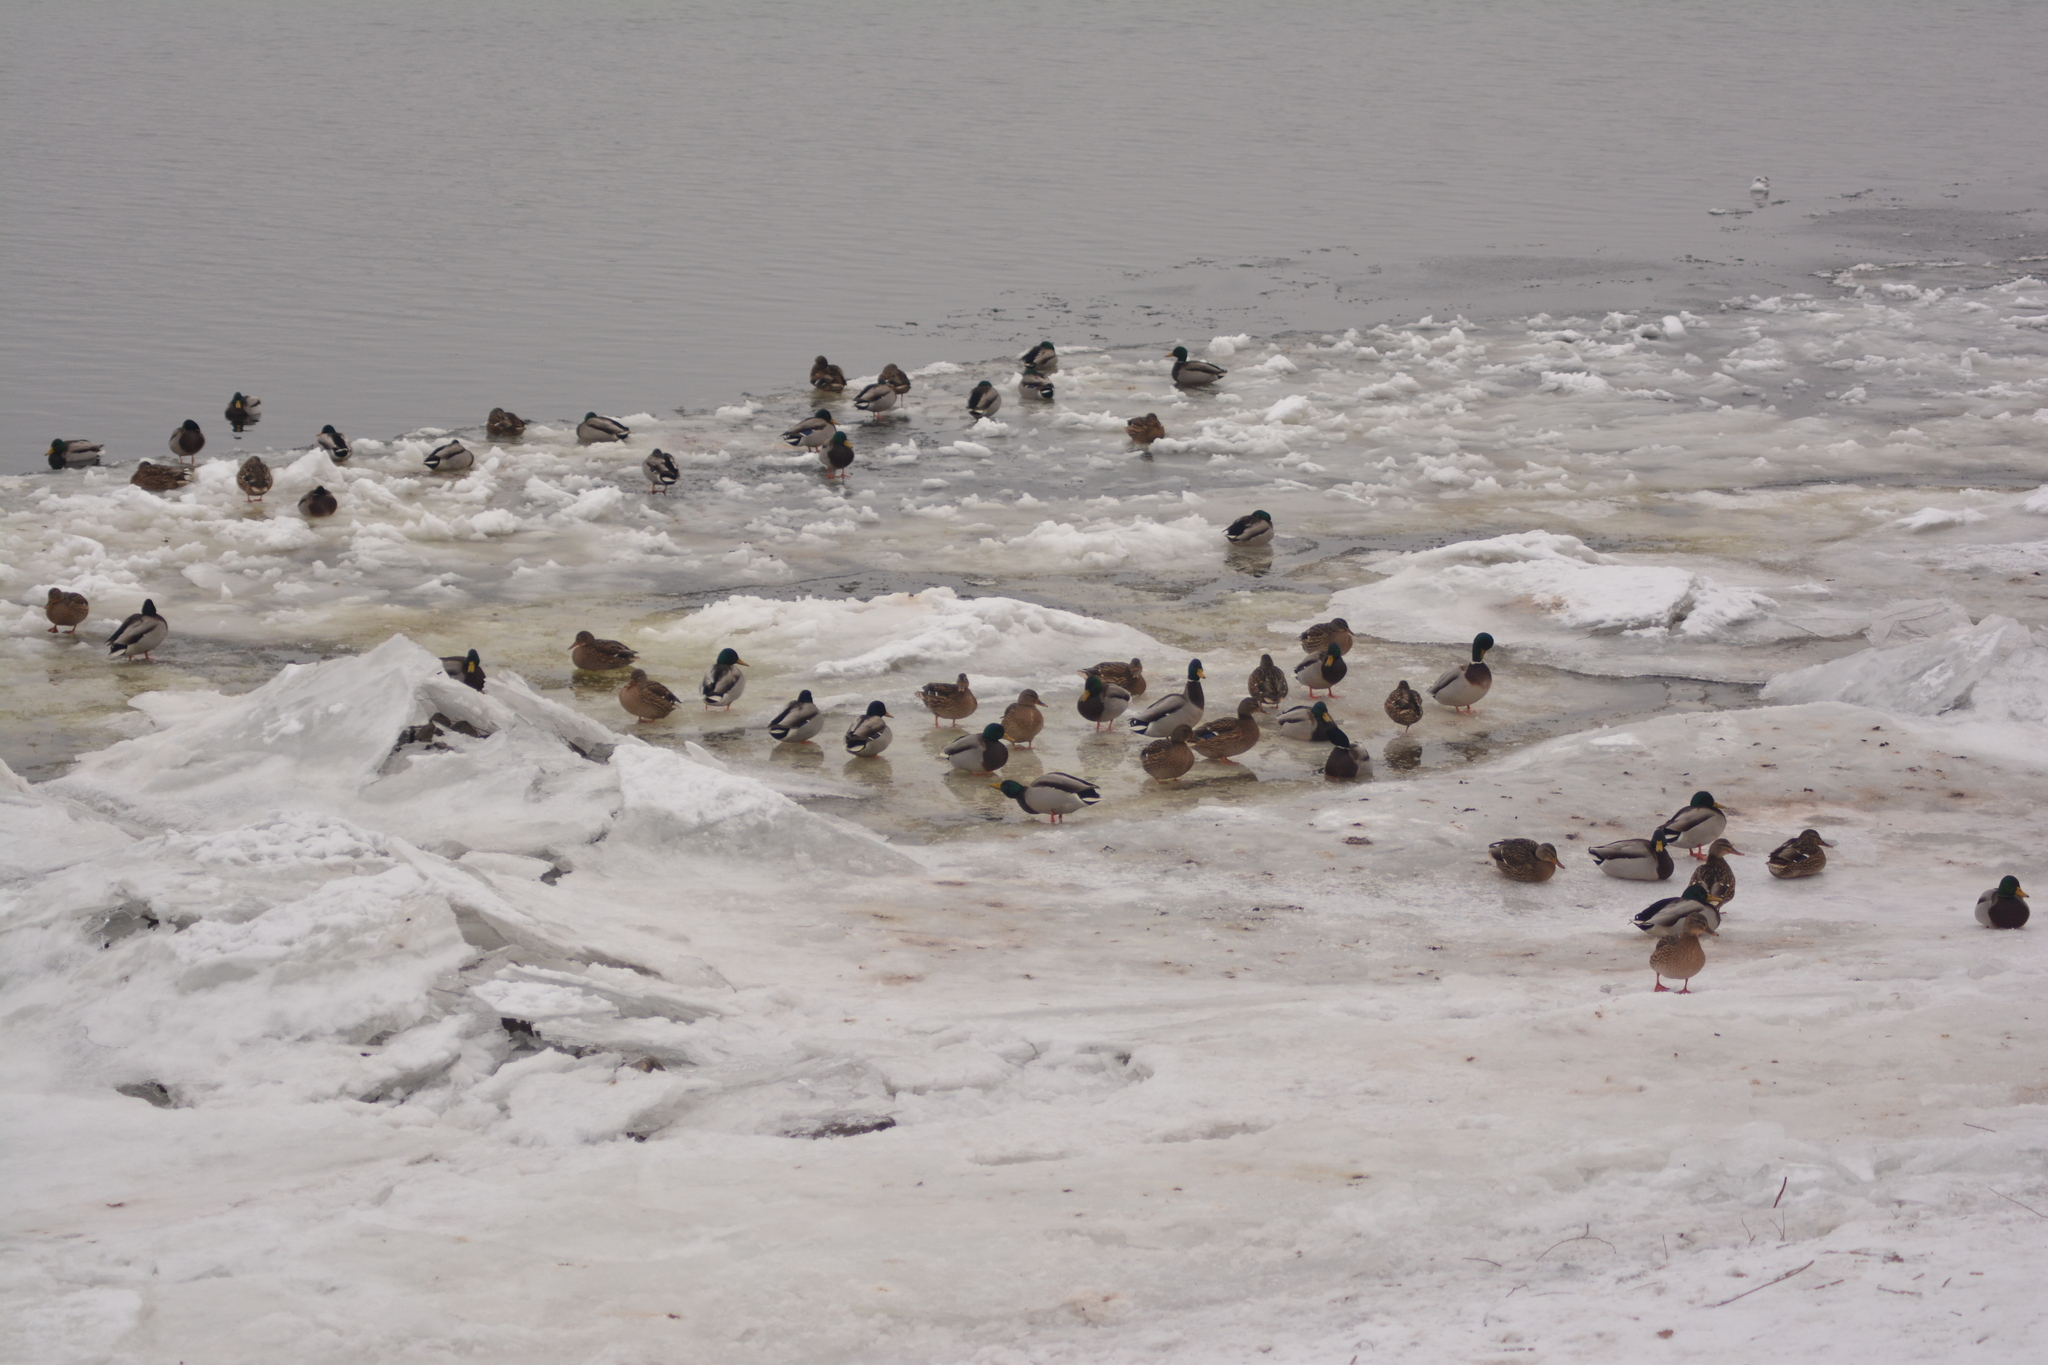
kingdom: Animalia
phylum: Chordata
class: Aves
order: Anseriformes
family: Anatidae
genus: Anas
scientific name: Anas platyrhynchos
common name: Mallard
